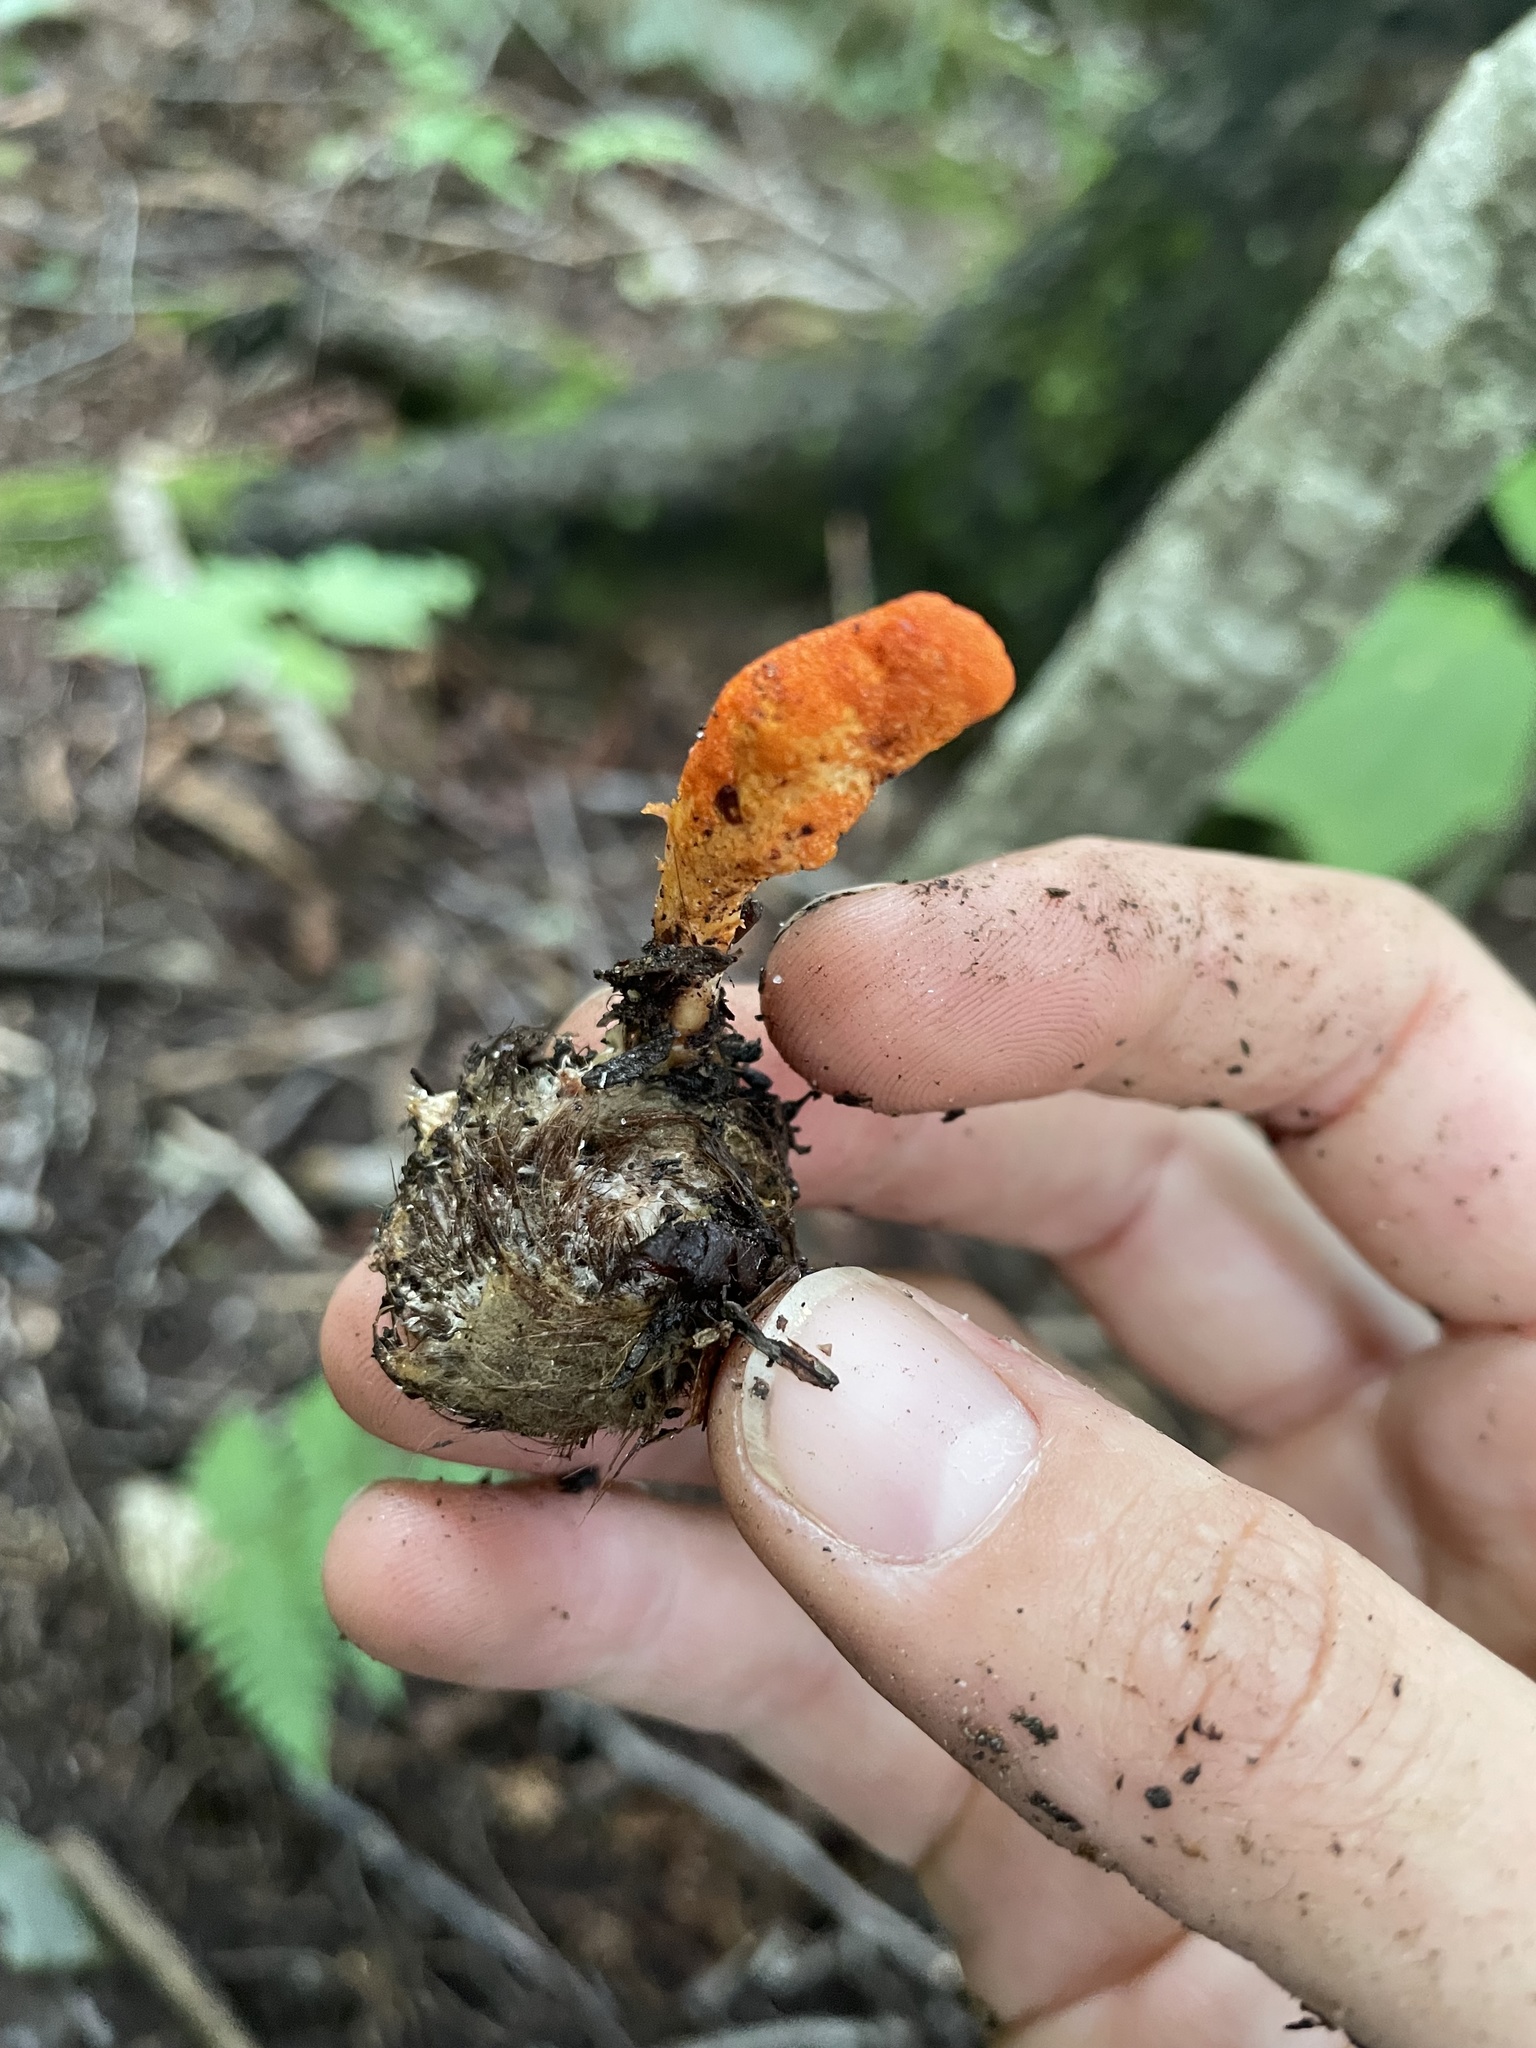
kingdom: Fungi
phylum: Ascomycota
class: Sordariomycetes
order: Hypocreales
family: Cordycipitaceae
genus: Cordyceps
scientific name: Cordyceps militaris
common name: Scarlet caterpillar fungus
